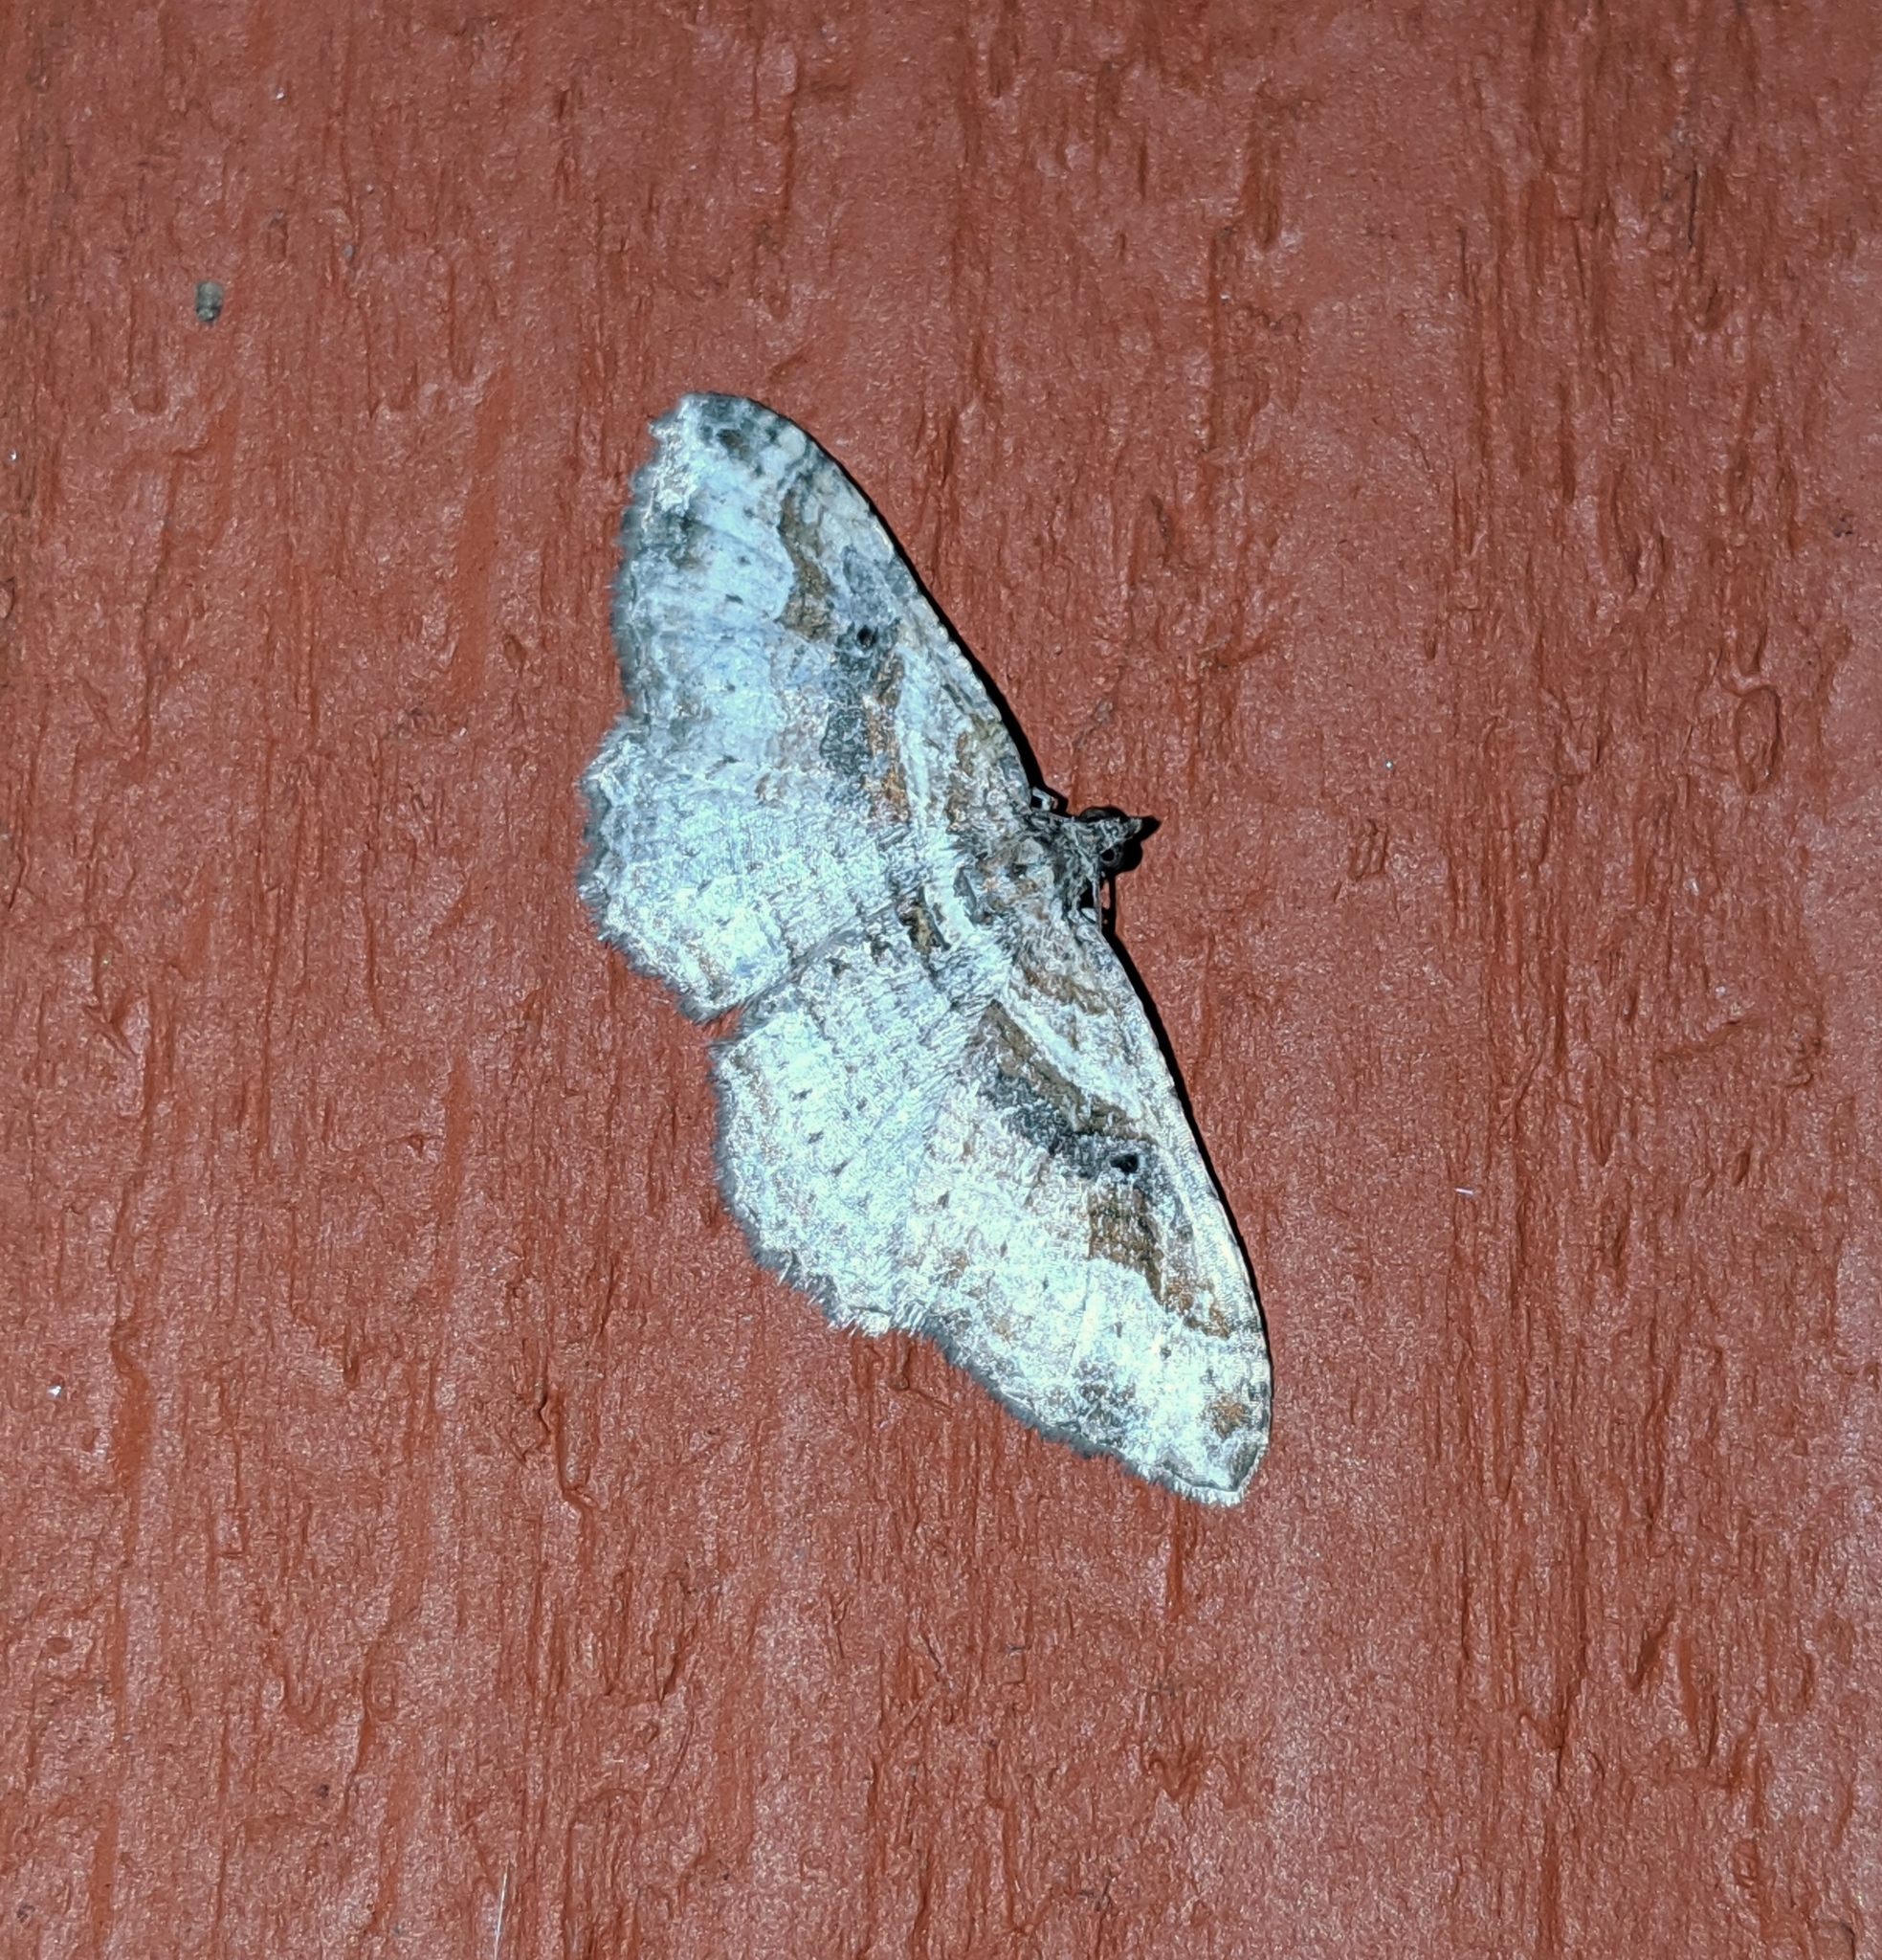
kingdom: Animalia
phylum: Arthropoda
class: Insecta
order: Lepidoptera
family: Geometridae
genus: Costaconvexa
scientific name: Costaconvexa centrostrigaria
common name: Bent-line carpet
